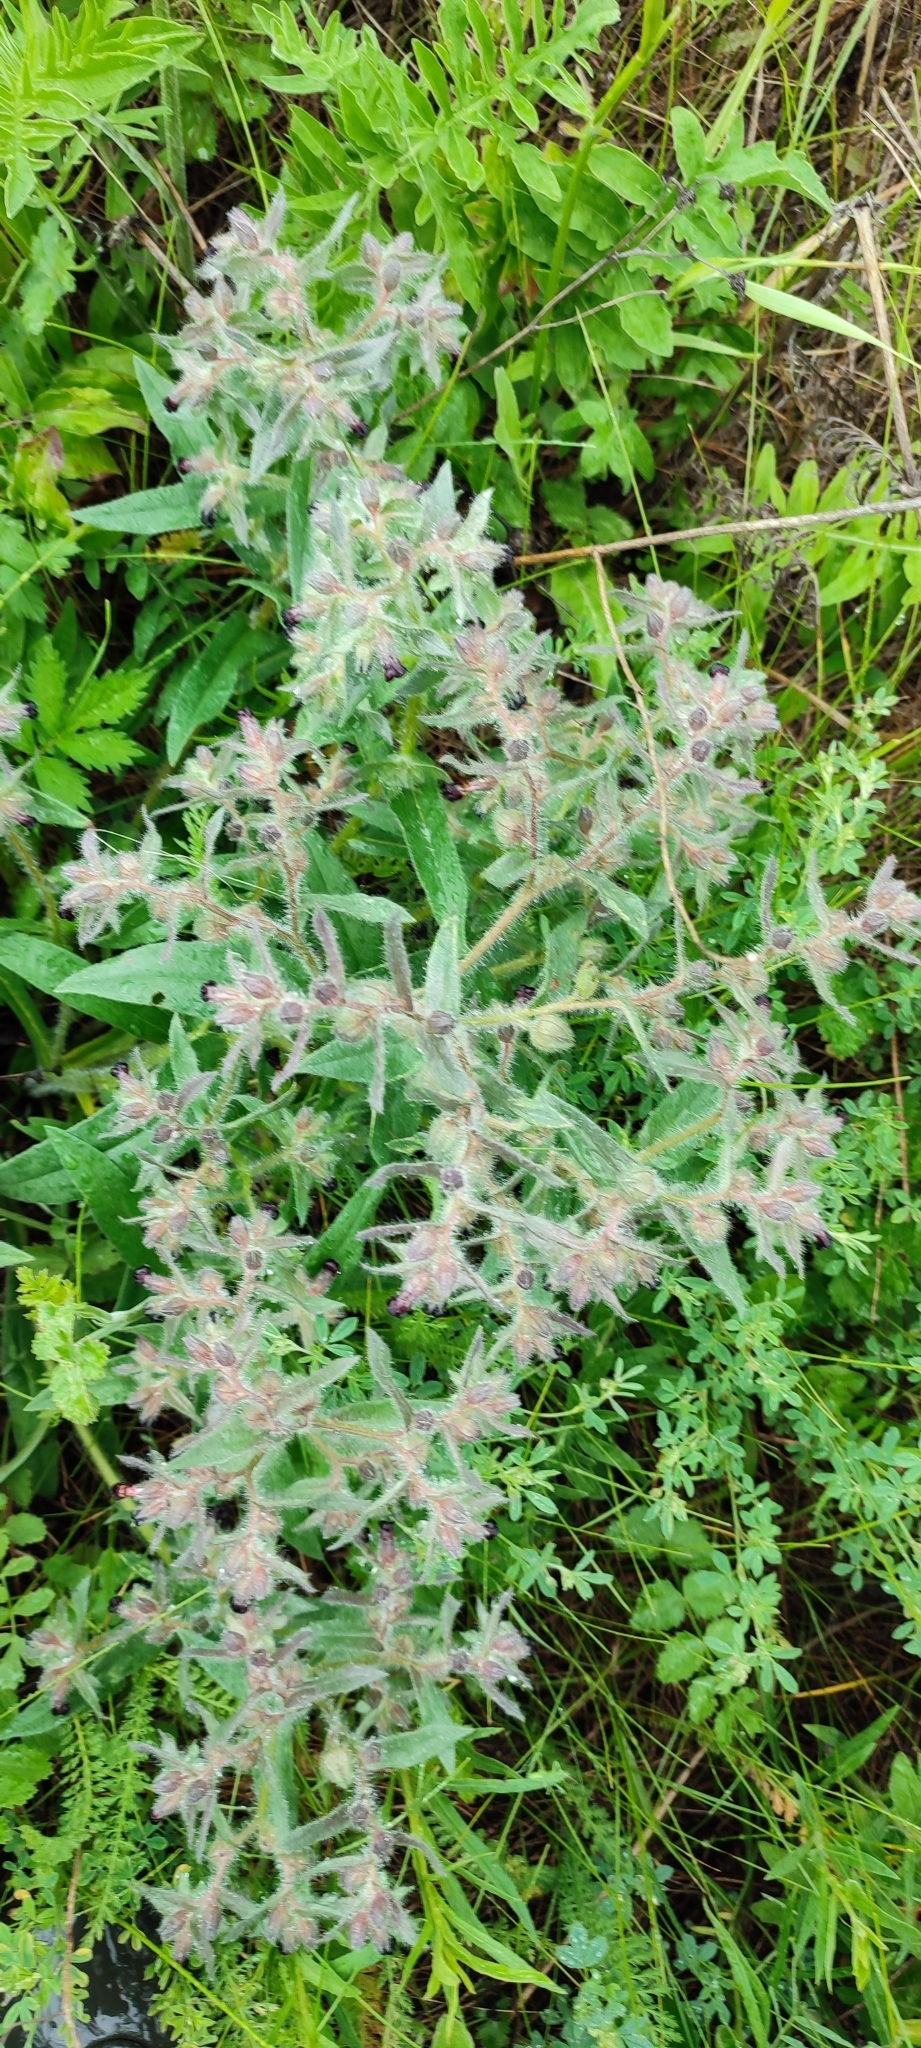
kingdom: Plantae
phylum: Tracheophyta
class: Magnoliopsida
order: Boraginales
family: Boraginaceae
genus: Nonea
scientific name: Nonea pulla
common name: Brown nonea
